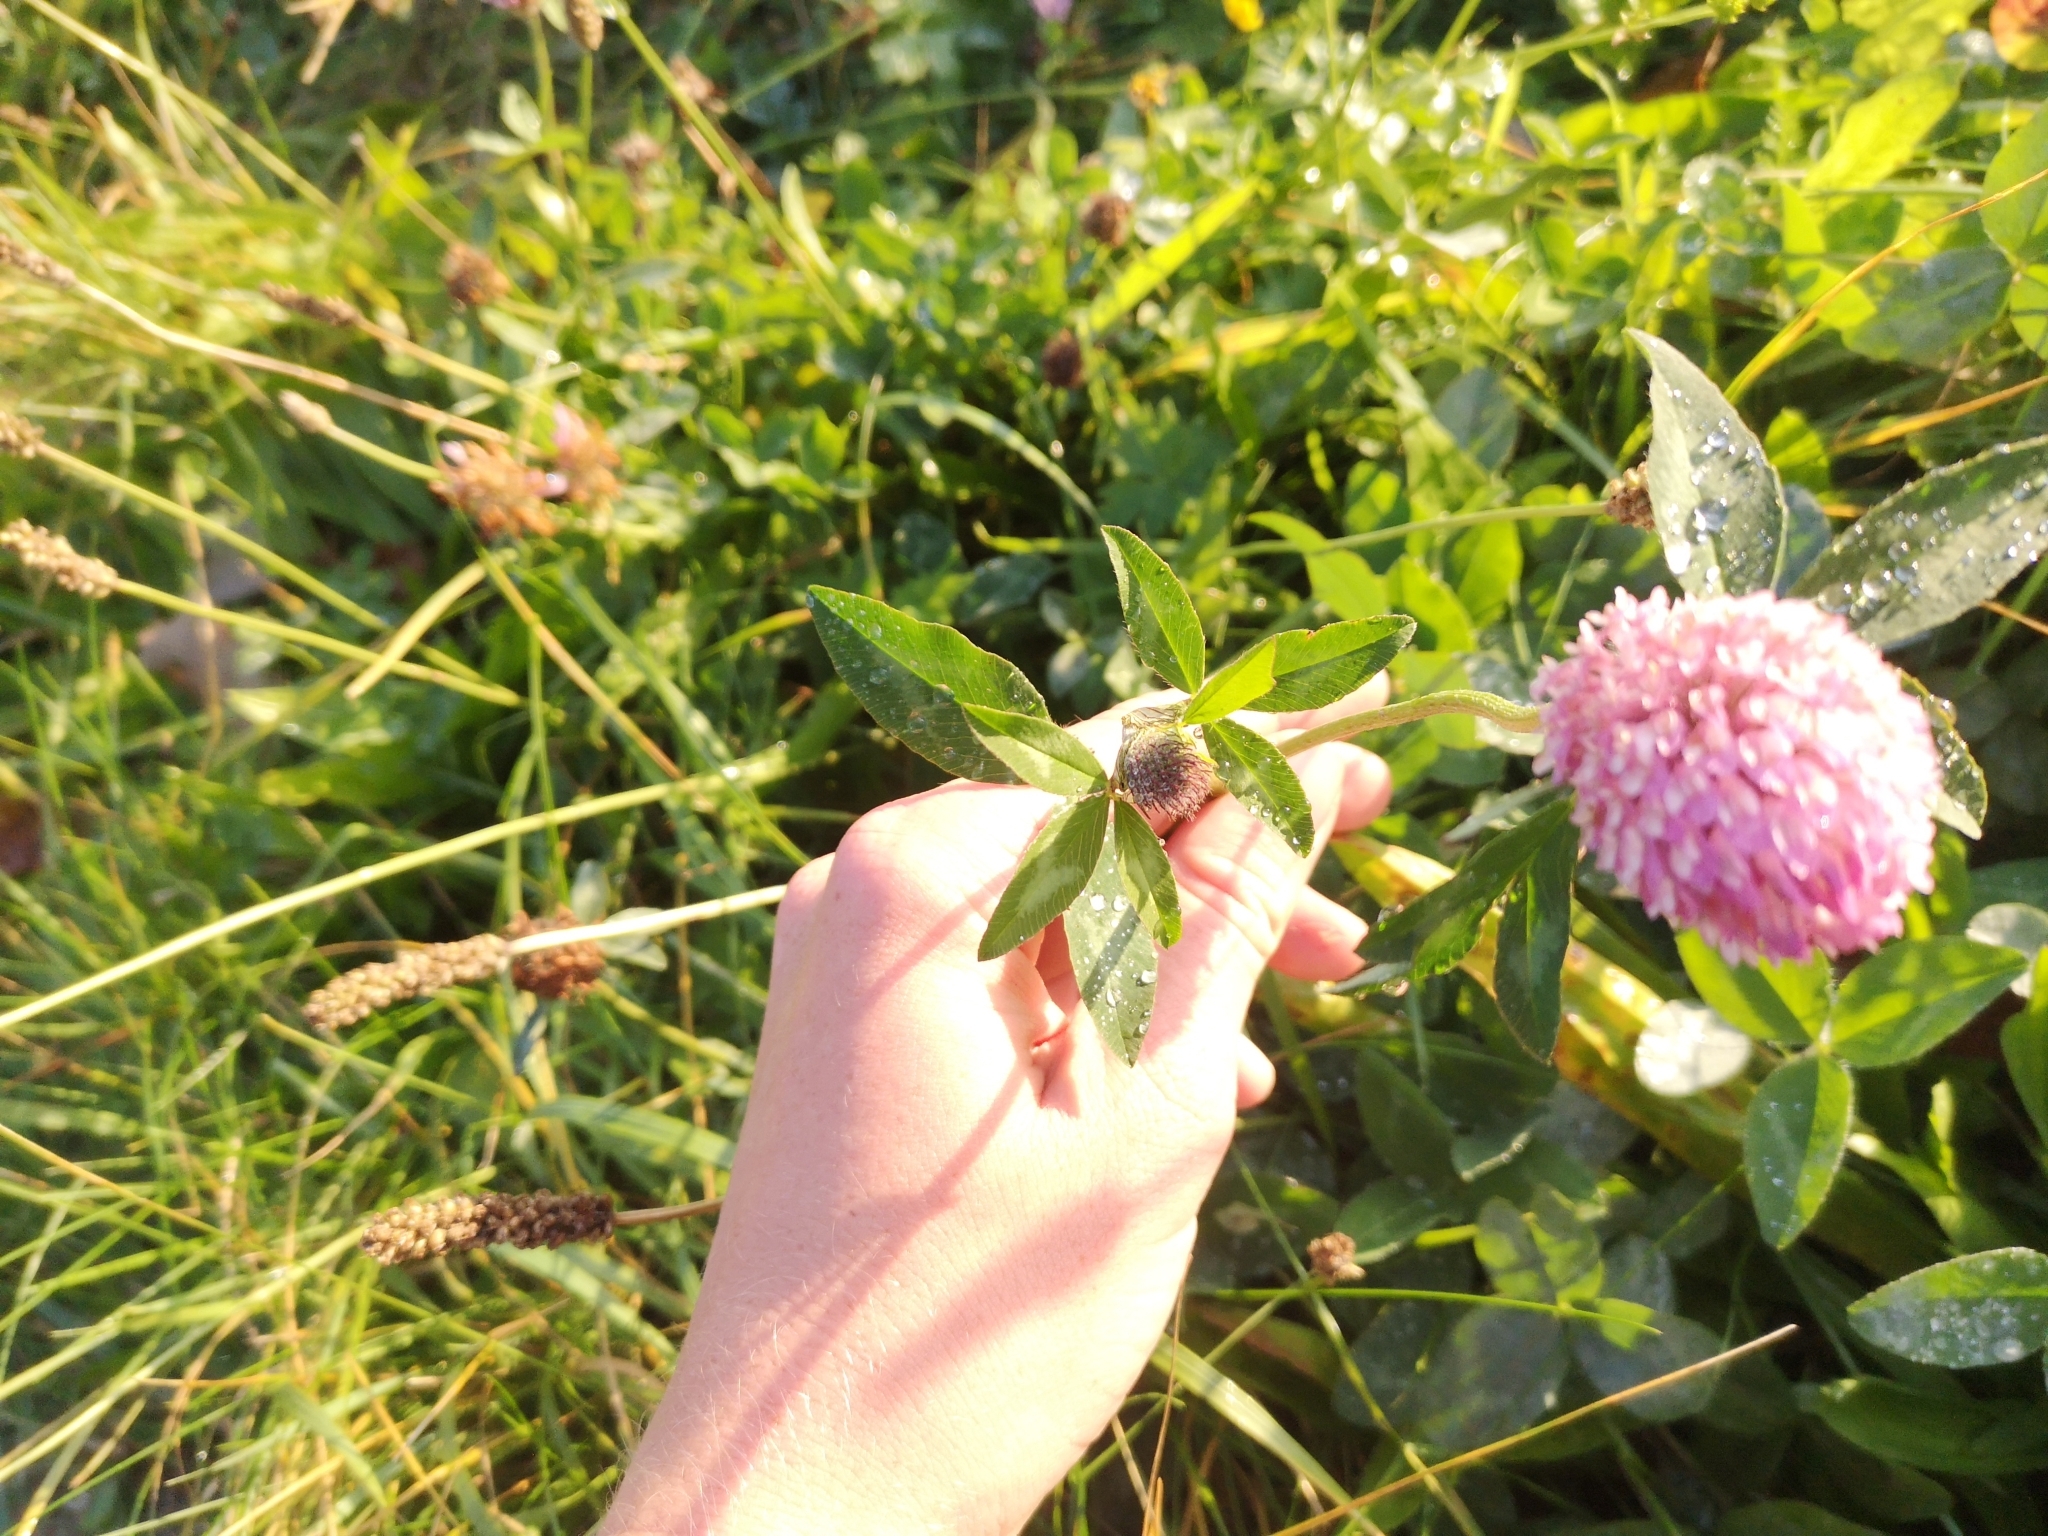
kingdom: Plantae
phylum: Tracheophyta
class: Magnoliopsida
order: Fabales
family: Fabaceae
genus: Trifolium
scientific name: Trifolium pratense
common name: Red clover
